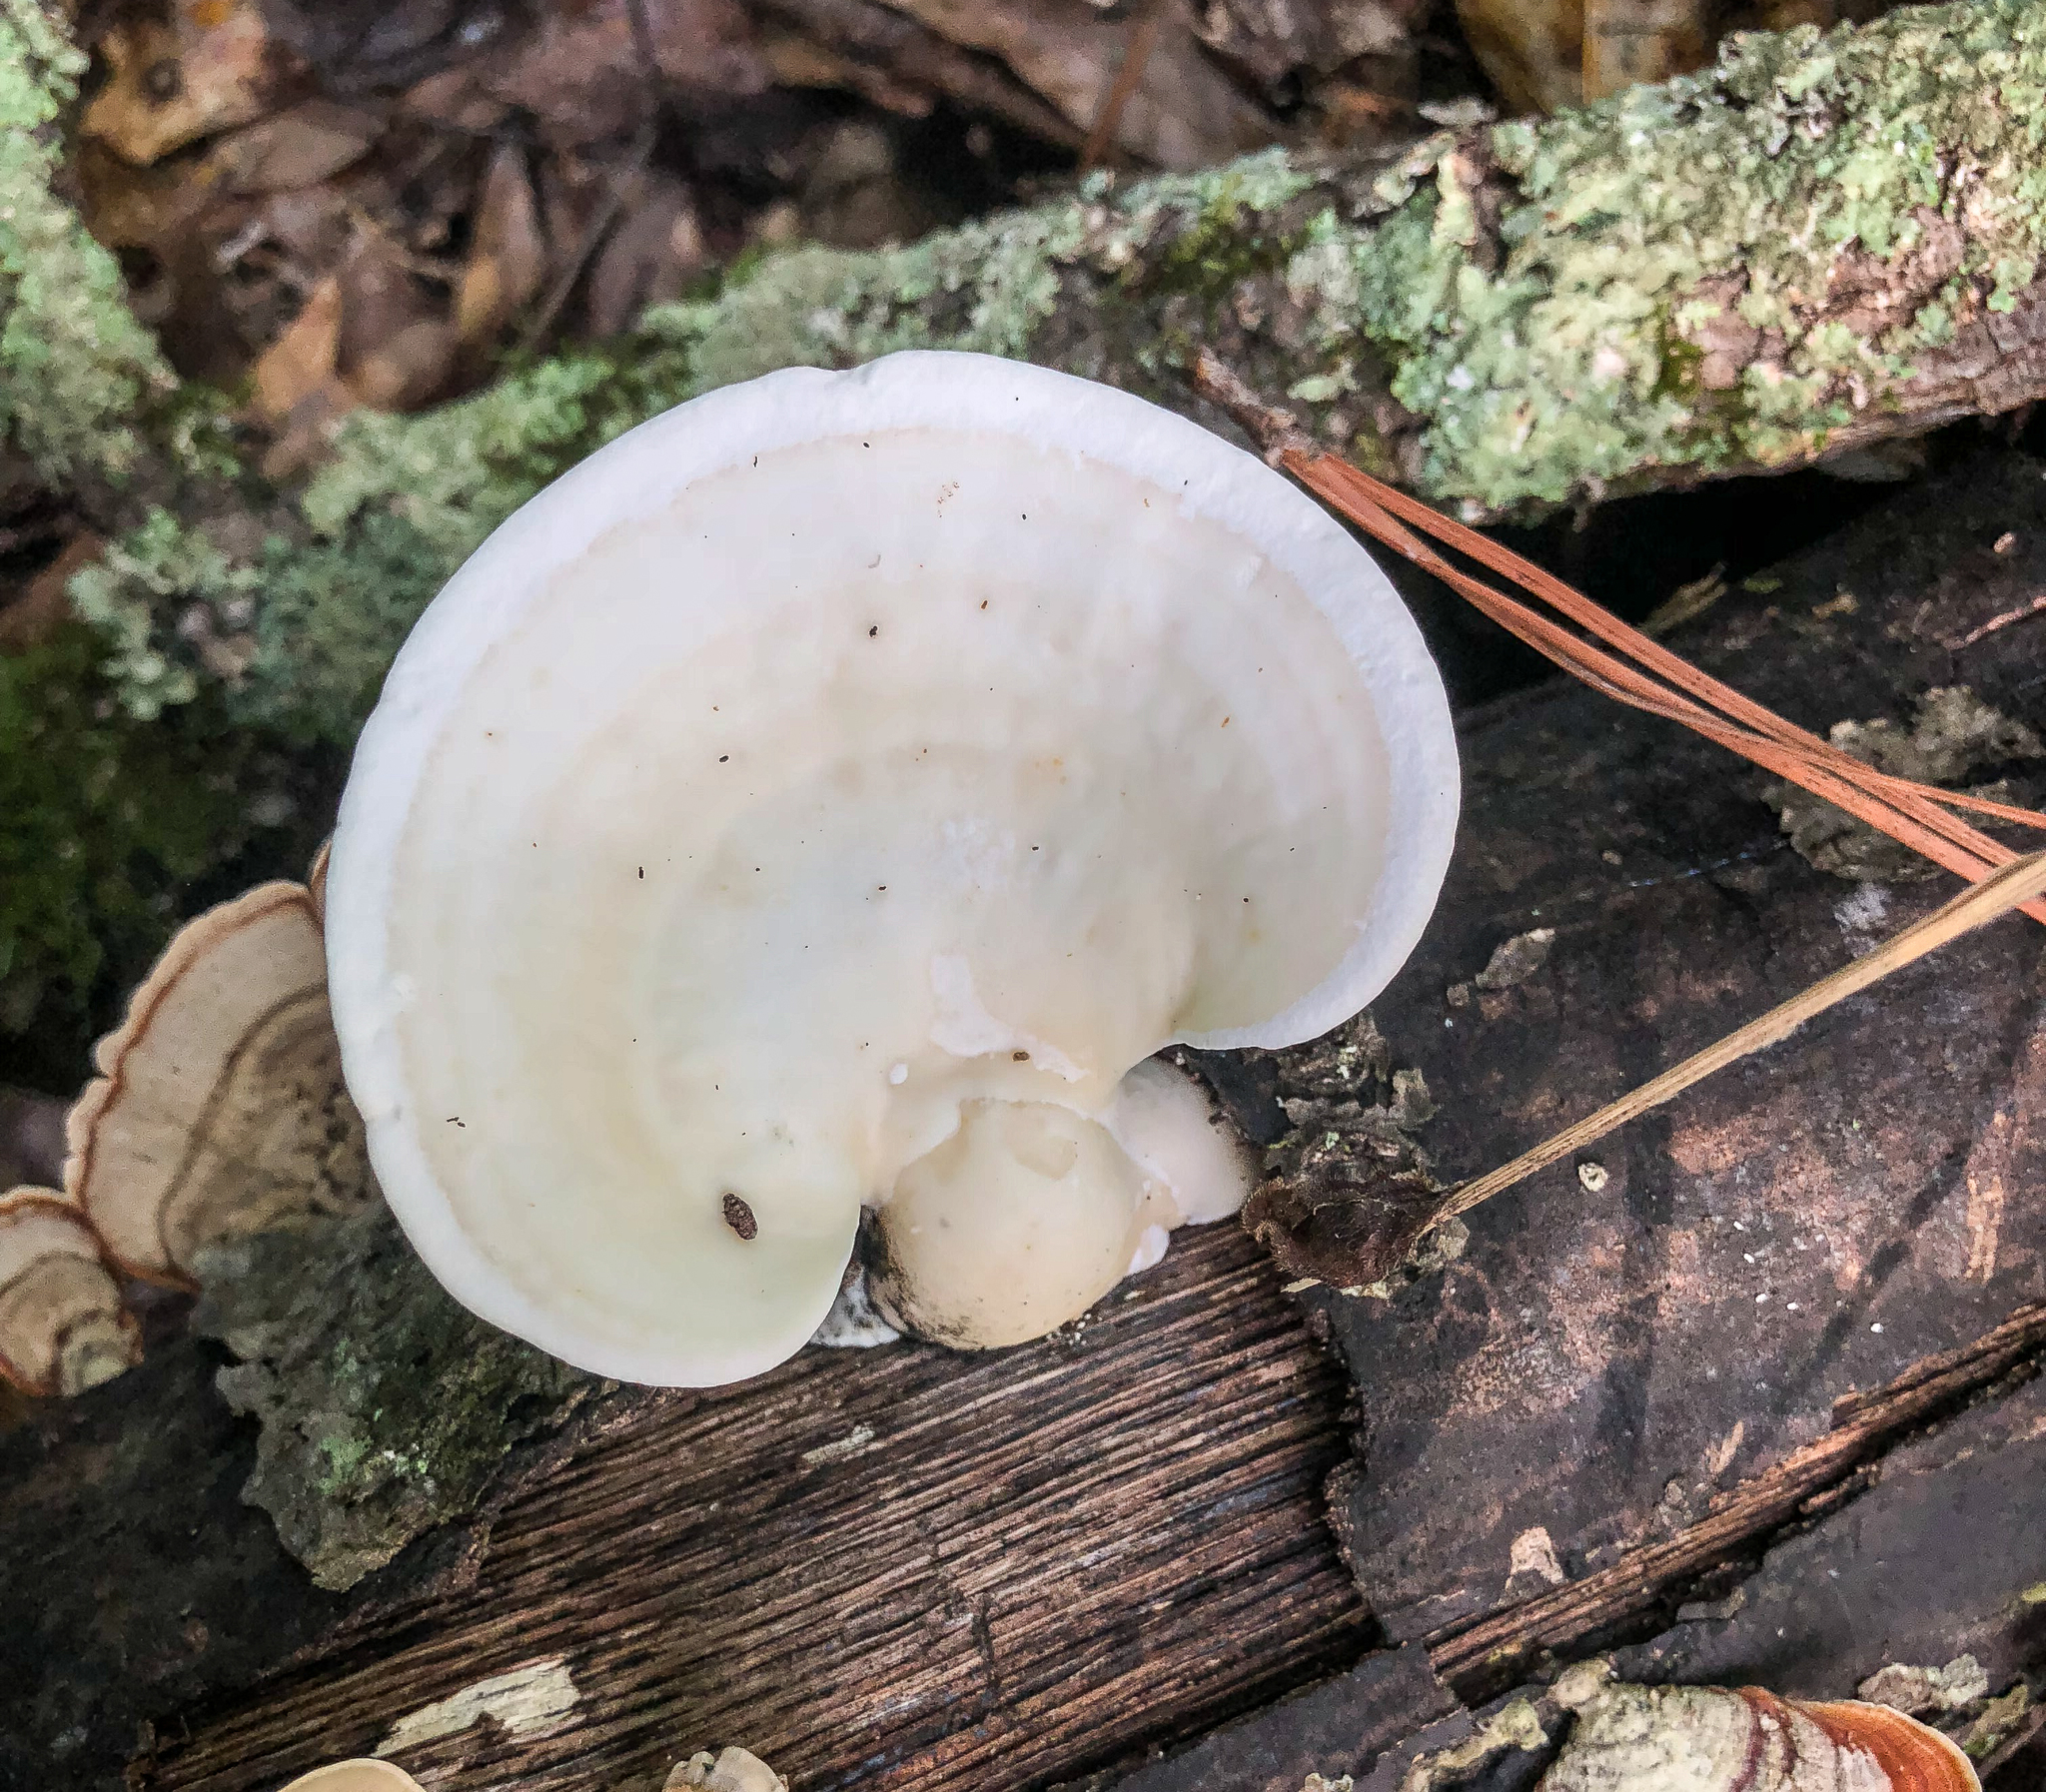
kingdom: Fungi
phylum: Basidiomycota
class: Agaricomycetes
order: Polyporales
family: Polyporaceae
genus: Trametes
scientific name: Trametes
